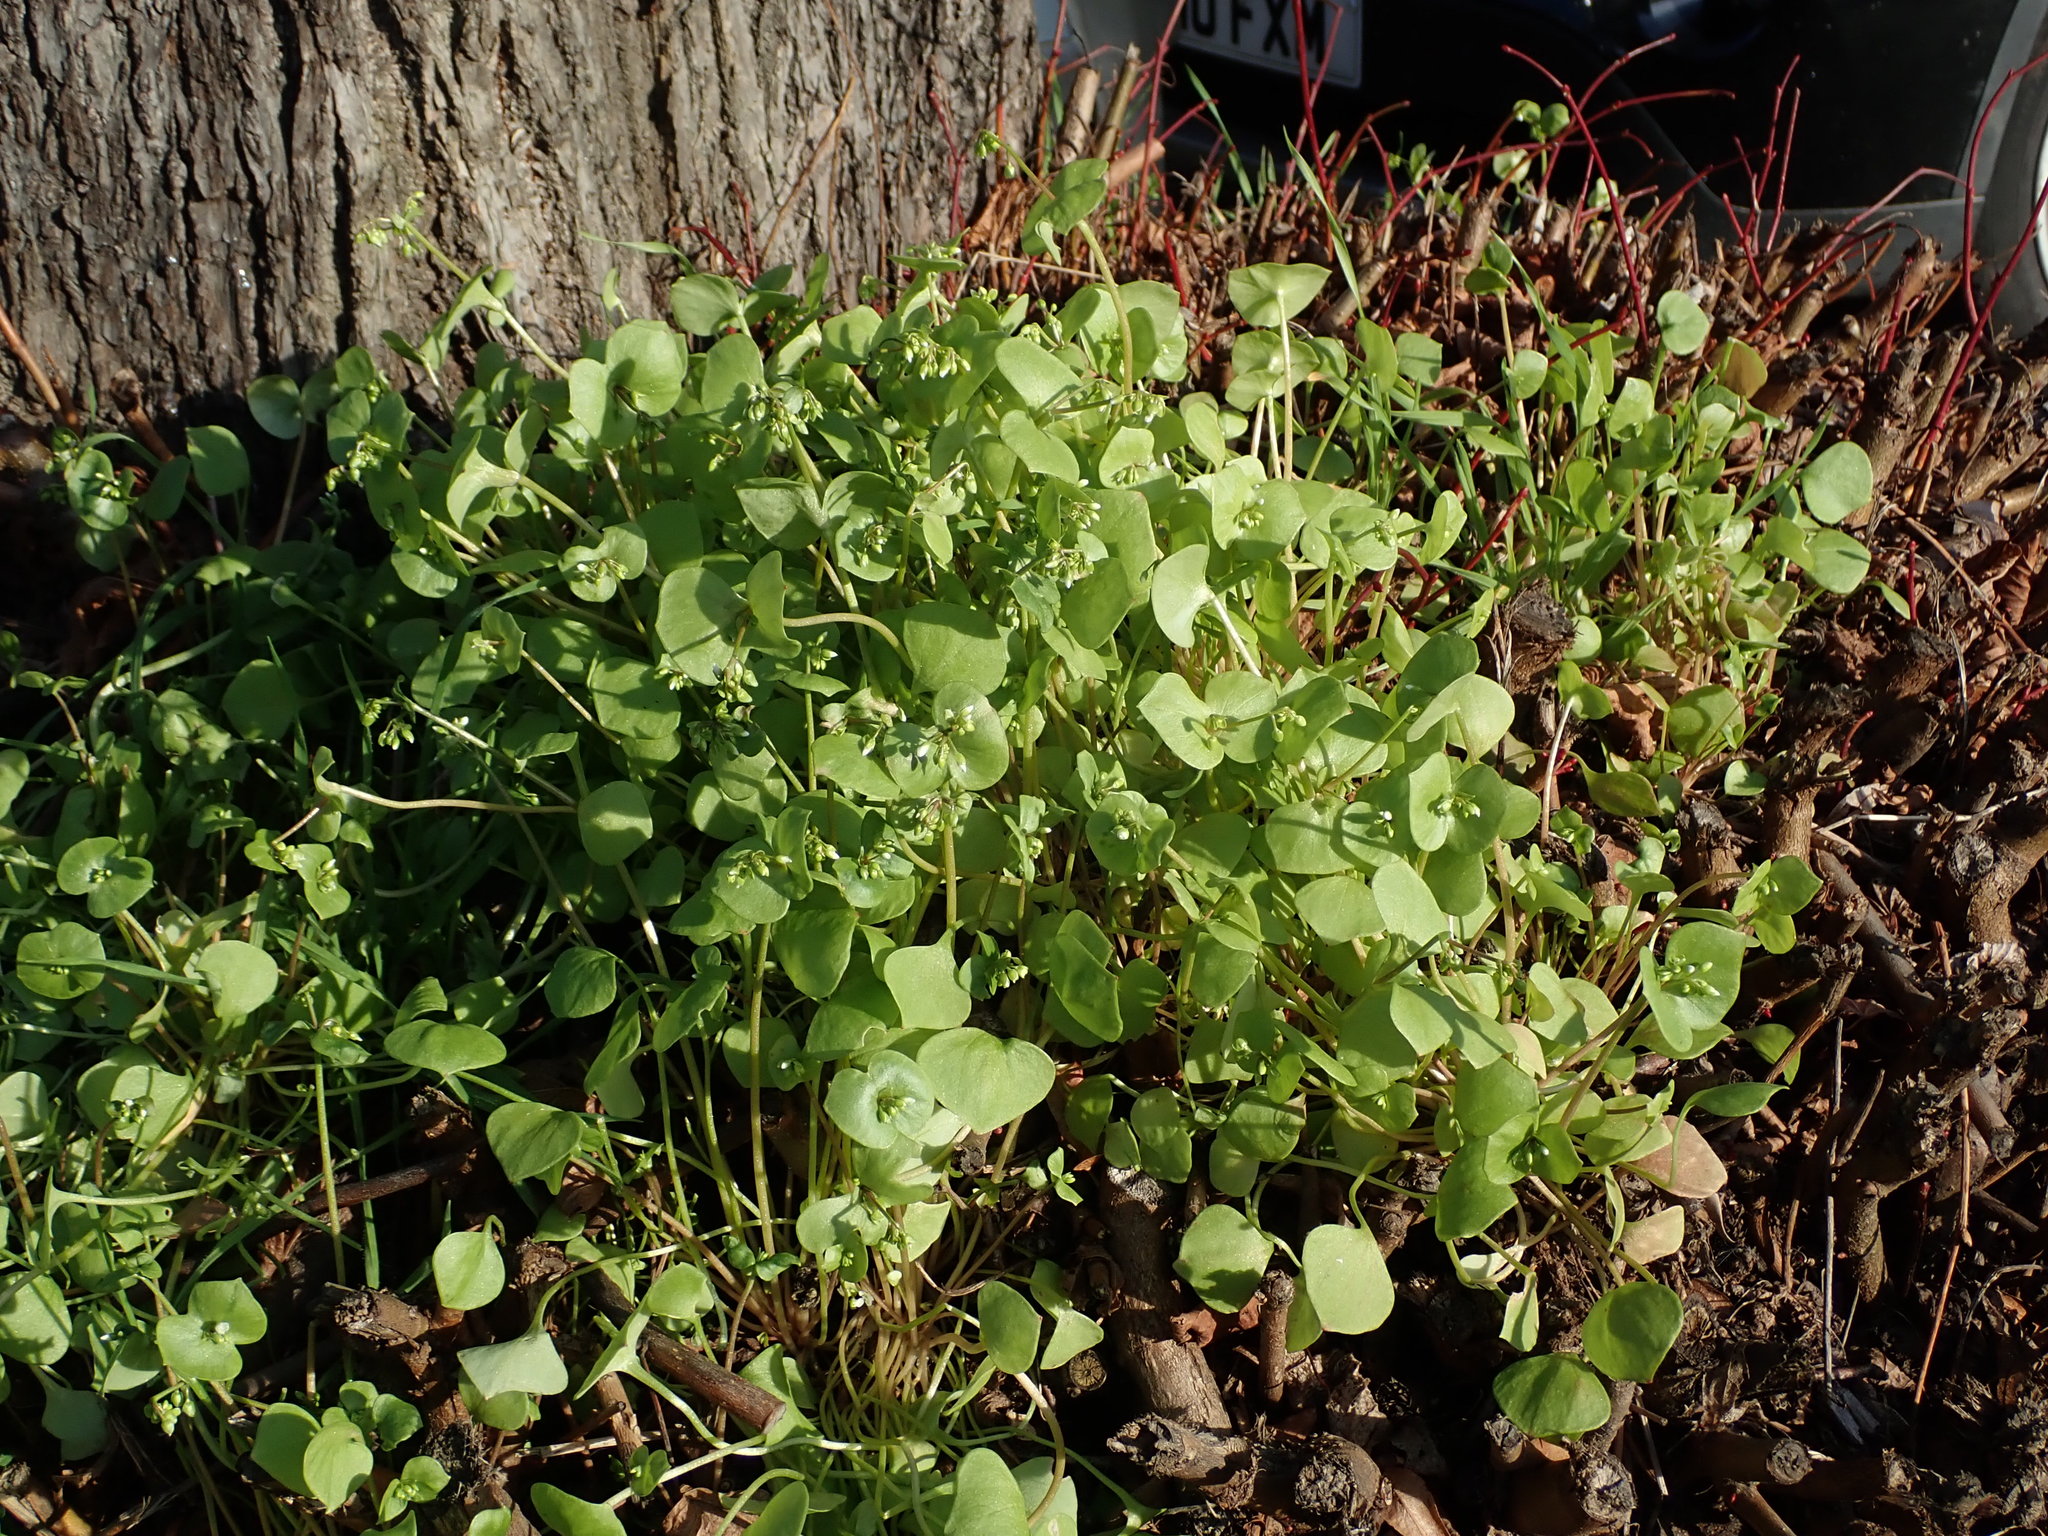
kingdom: Plantae
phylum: Tracheophyta
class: Magnoliopsida
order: Caryophyllales
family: Montiaceae
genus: Claytonia
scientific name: Claytonia perfoliata
